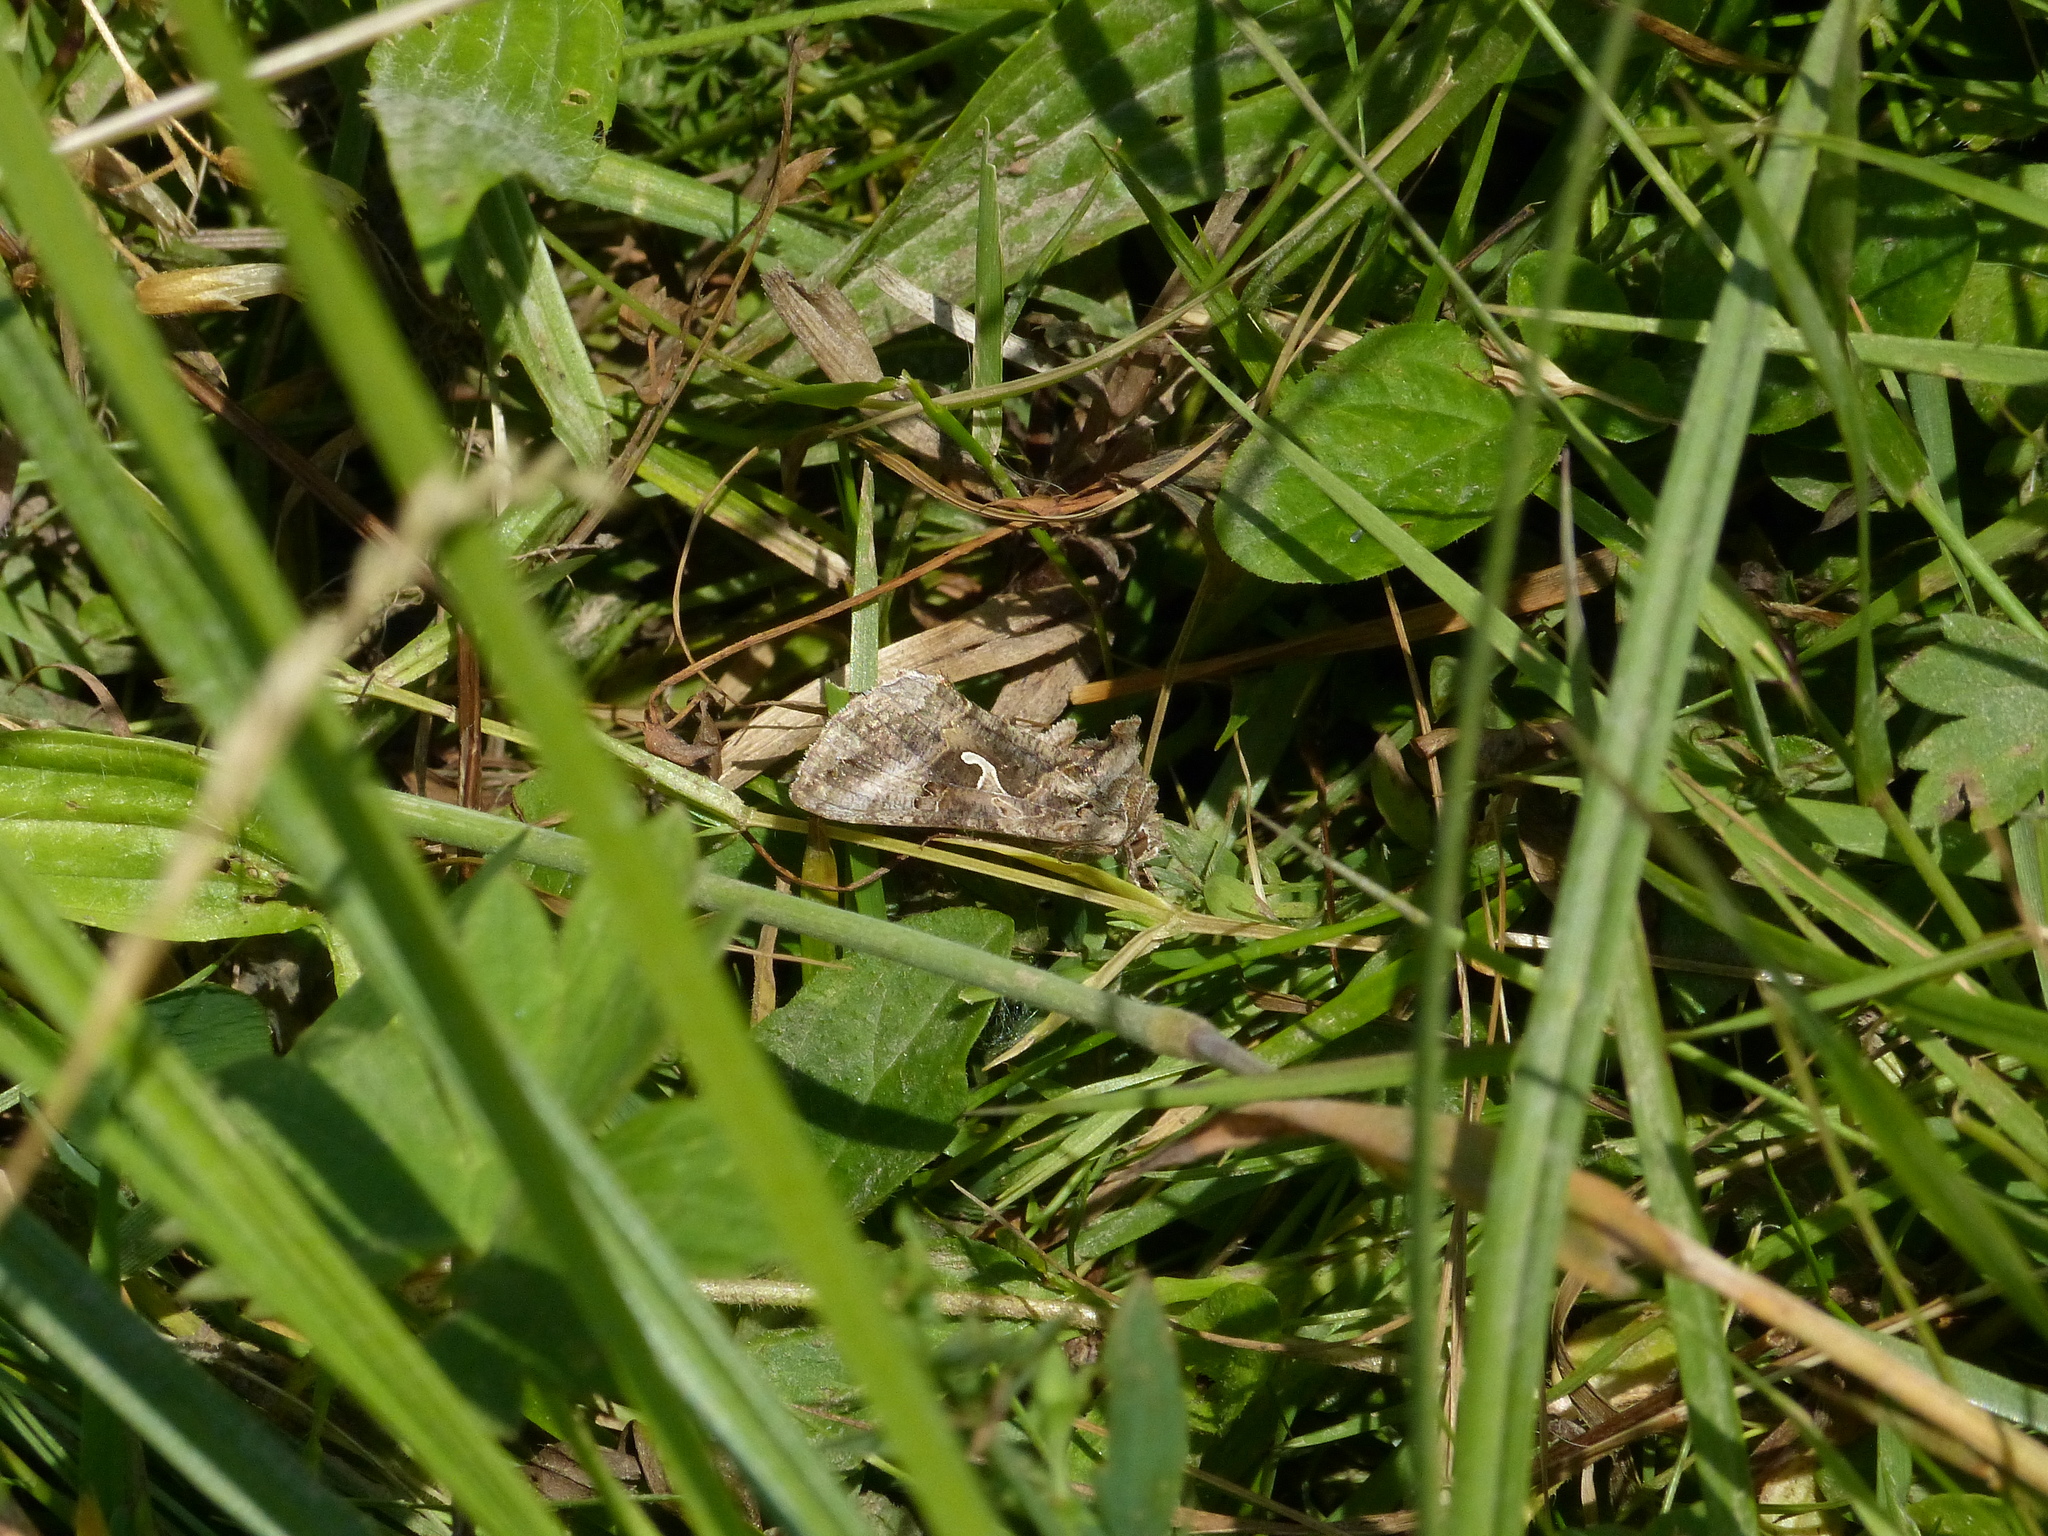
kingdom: Animalia
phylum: Arthropoda
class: Insecta
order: Lepidoptera
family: Noctuidae
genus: Autographa
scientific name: Autographa gamma
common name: Silver y
